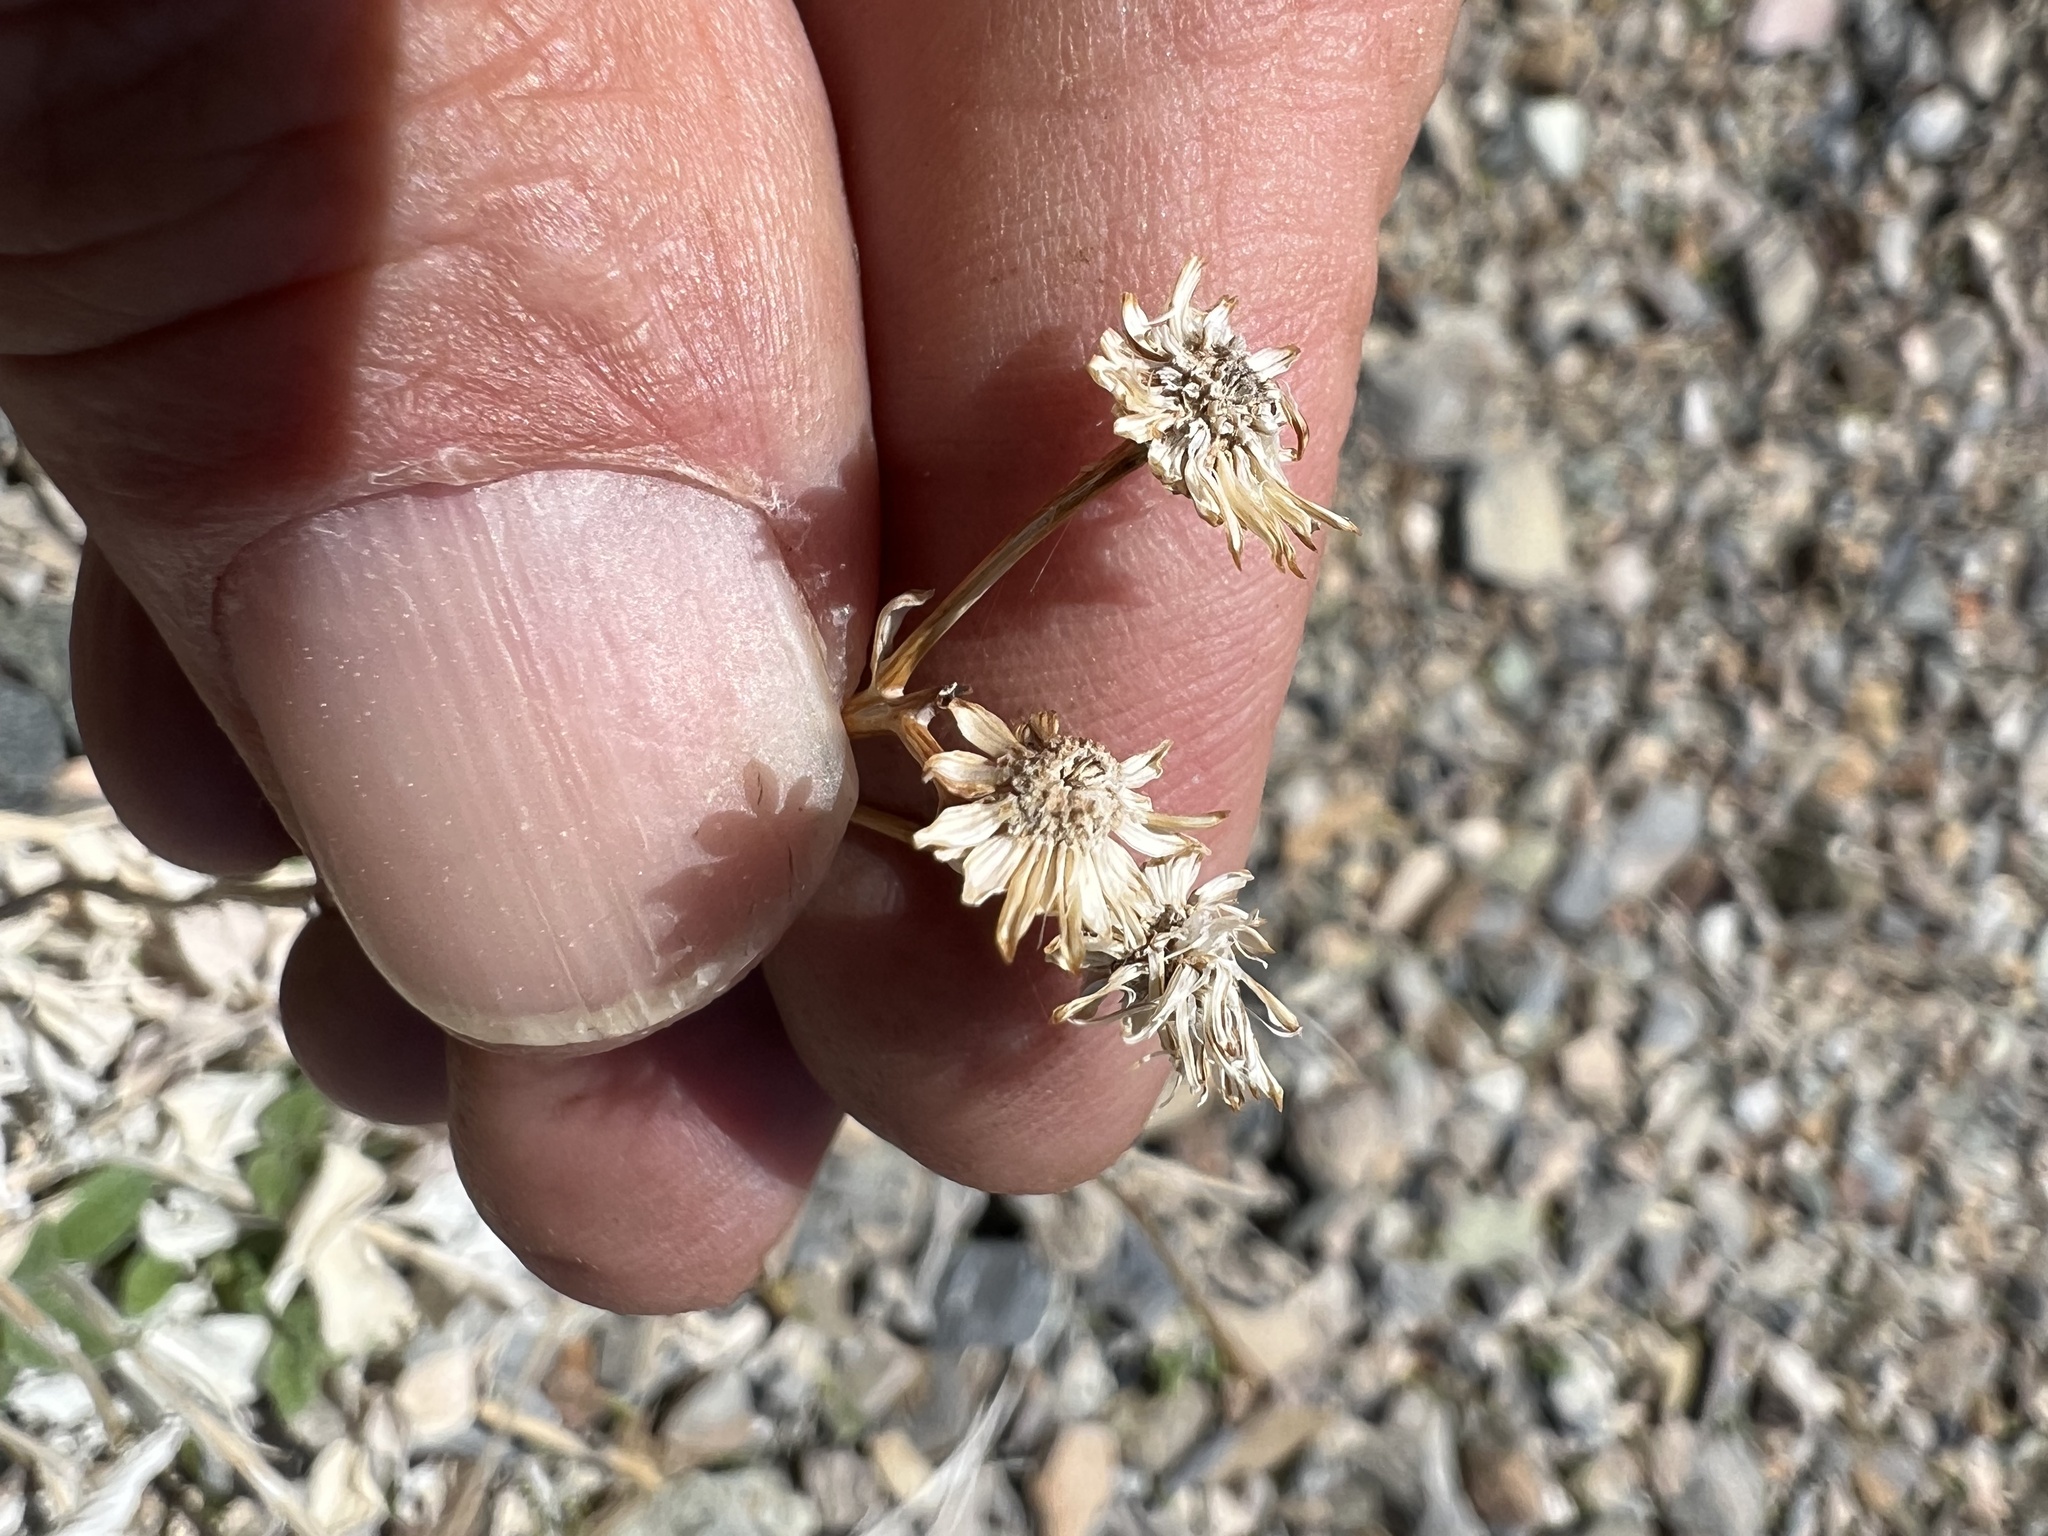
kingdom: Plantae
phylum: Tracheophyta
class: Magnoliopsida
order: Asterales
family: Asteraceae
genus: Bahiopsis
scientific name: Bahiopsis reticulata
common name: Death valley goldeneye
